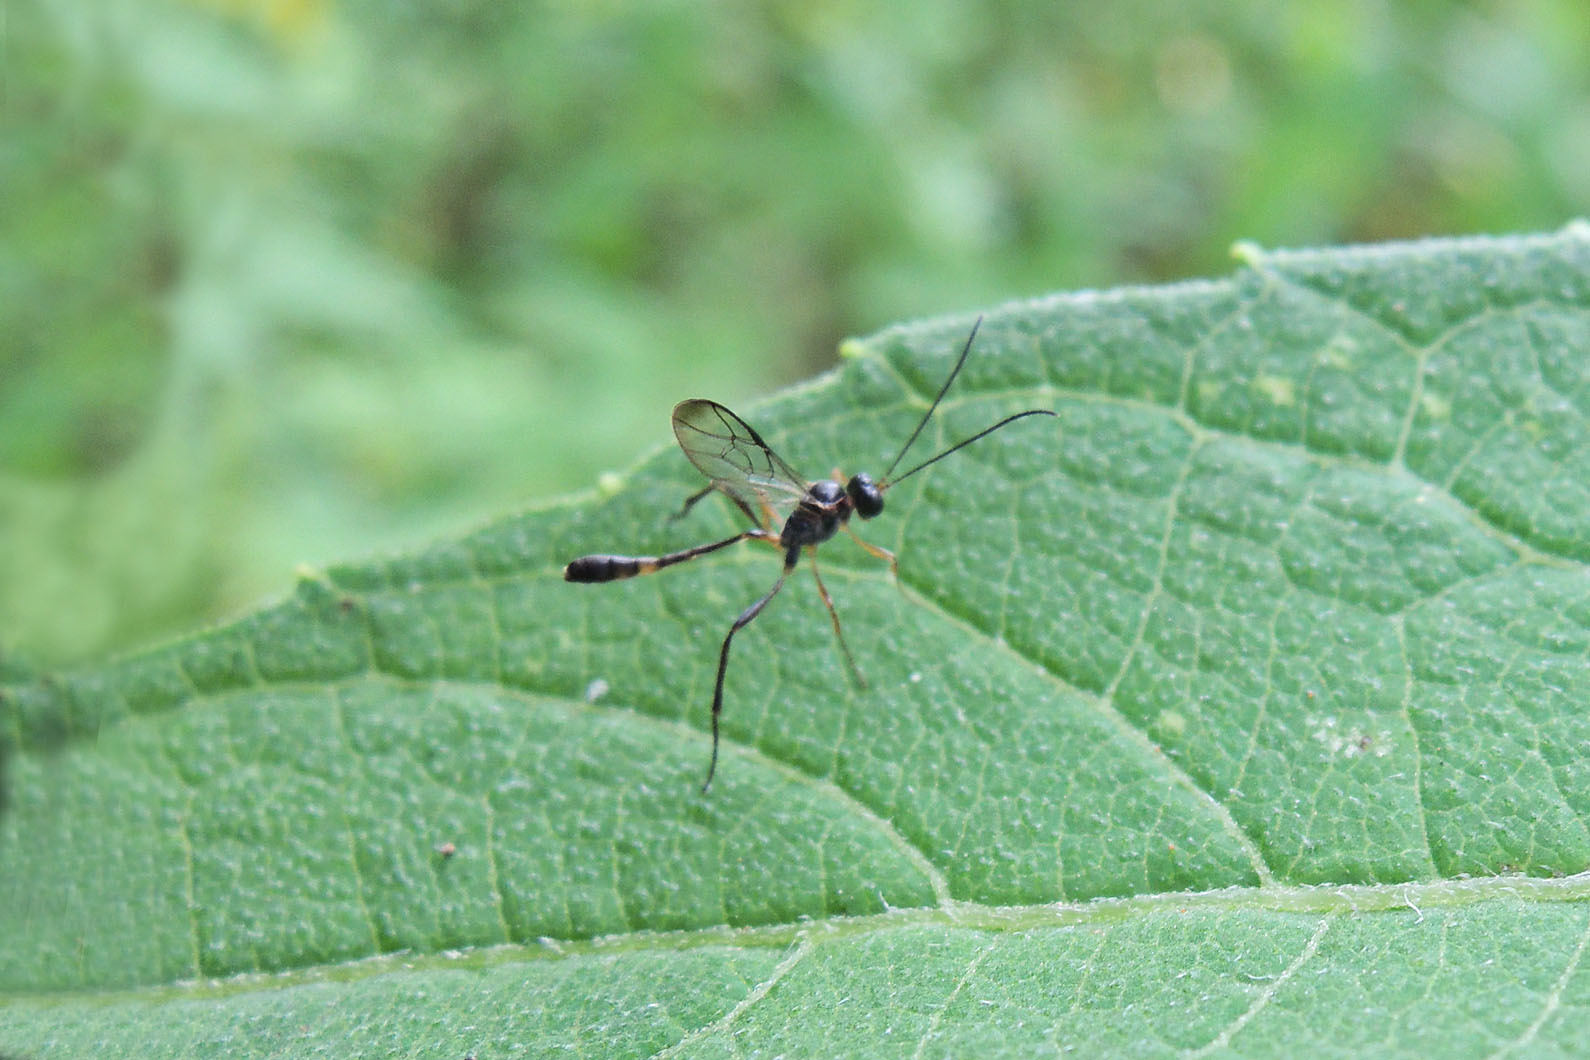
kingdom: Animalia
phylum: Arthropoda
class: Insecta
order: Hymenoptera
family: Ichneumonidae
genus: Anomalon
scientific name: Anomalon
